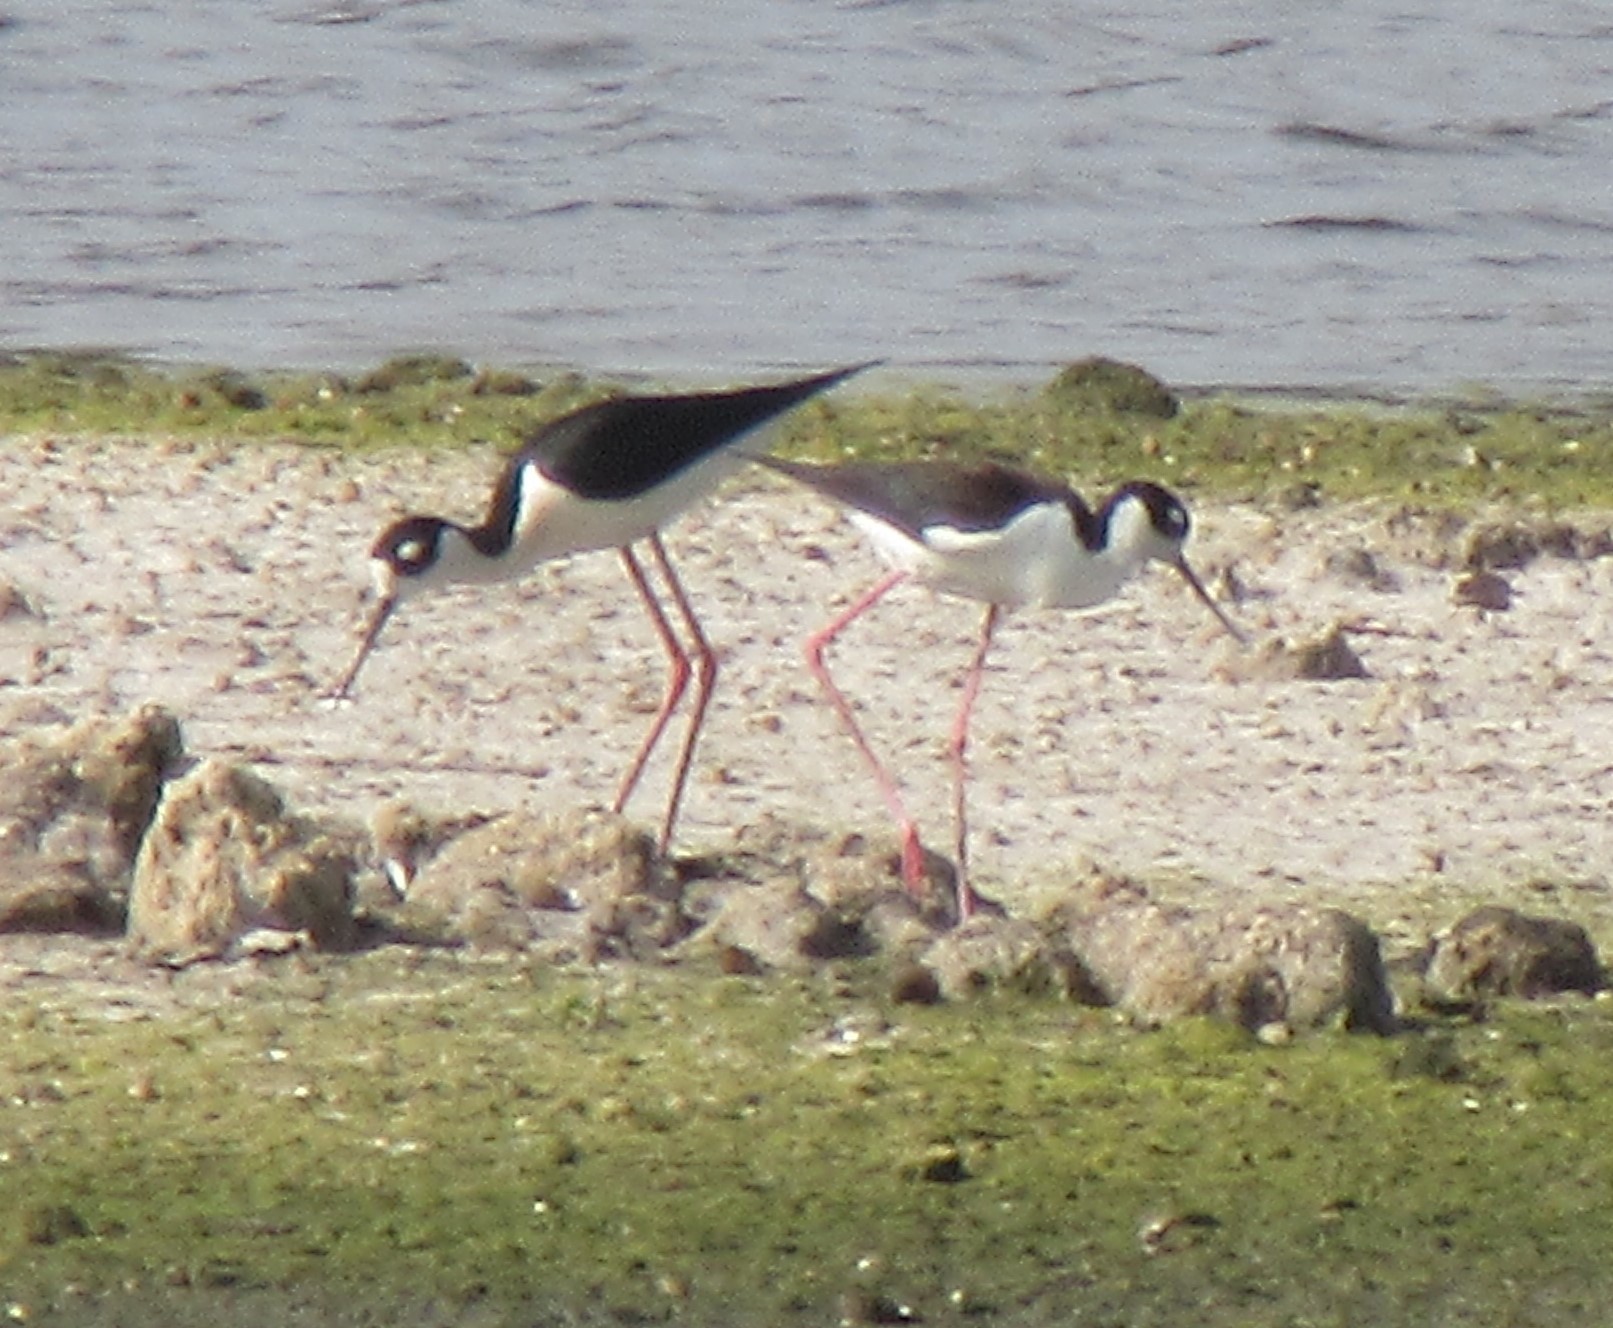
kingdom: Animalia
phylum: Chordata
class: Aves
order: Charadriiformes
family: Recurvirostridae
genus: Himantopus
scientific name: Himantopus mexicanus
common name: Black-necked stilt
